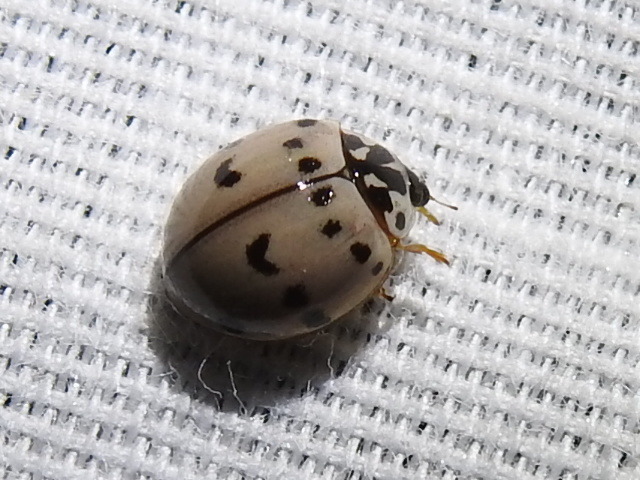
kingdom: Animalia
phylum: Arthropoda
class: Insecta
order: Coleoptera
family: Coccinellidae
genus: Olla
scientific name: Olla v-nigrum
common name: Ashy gray lady beetle
